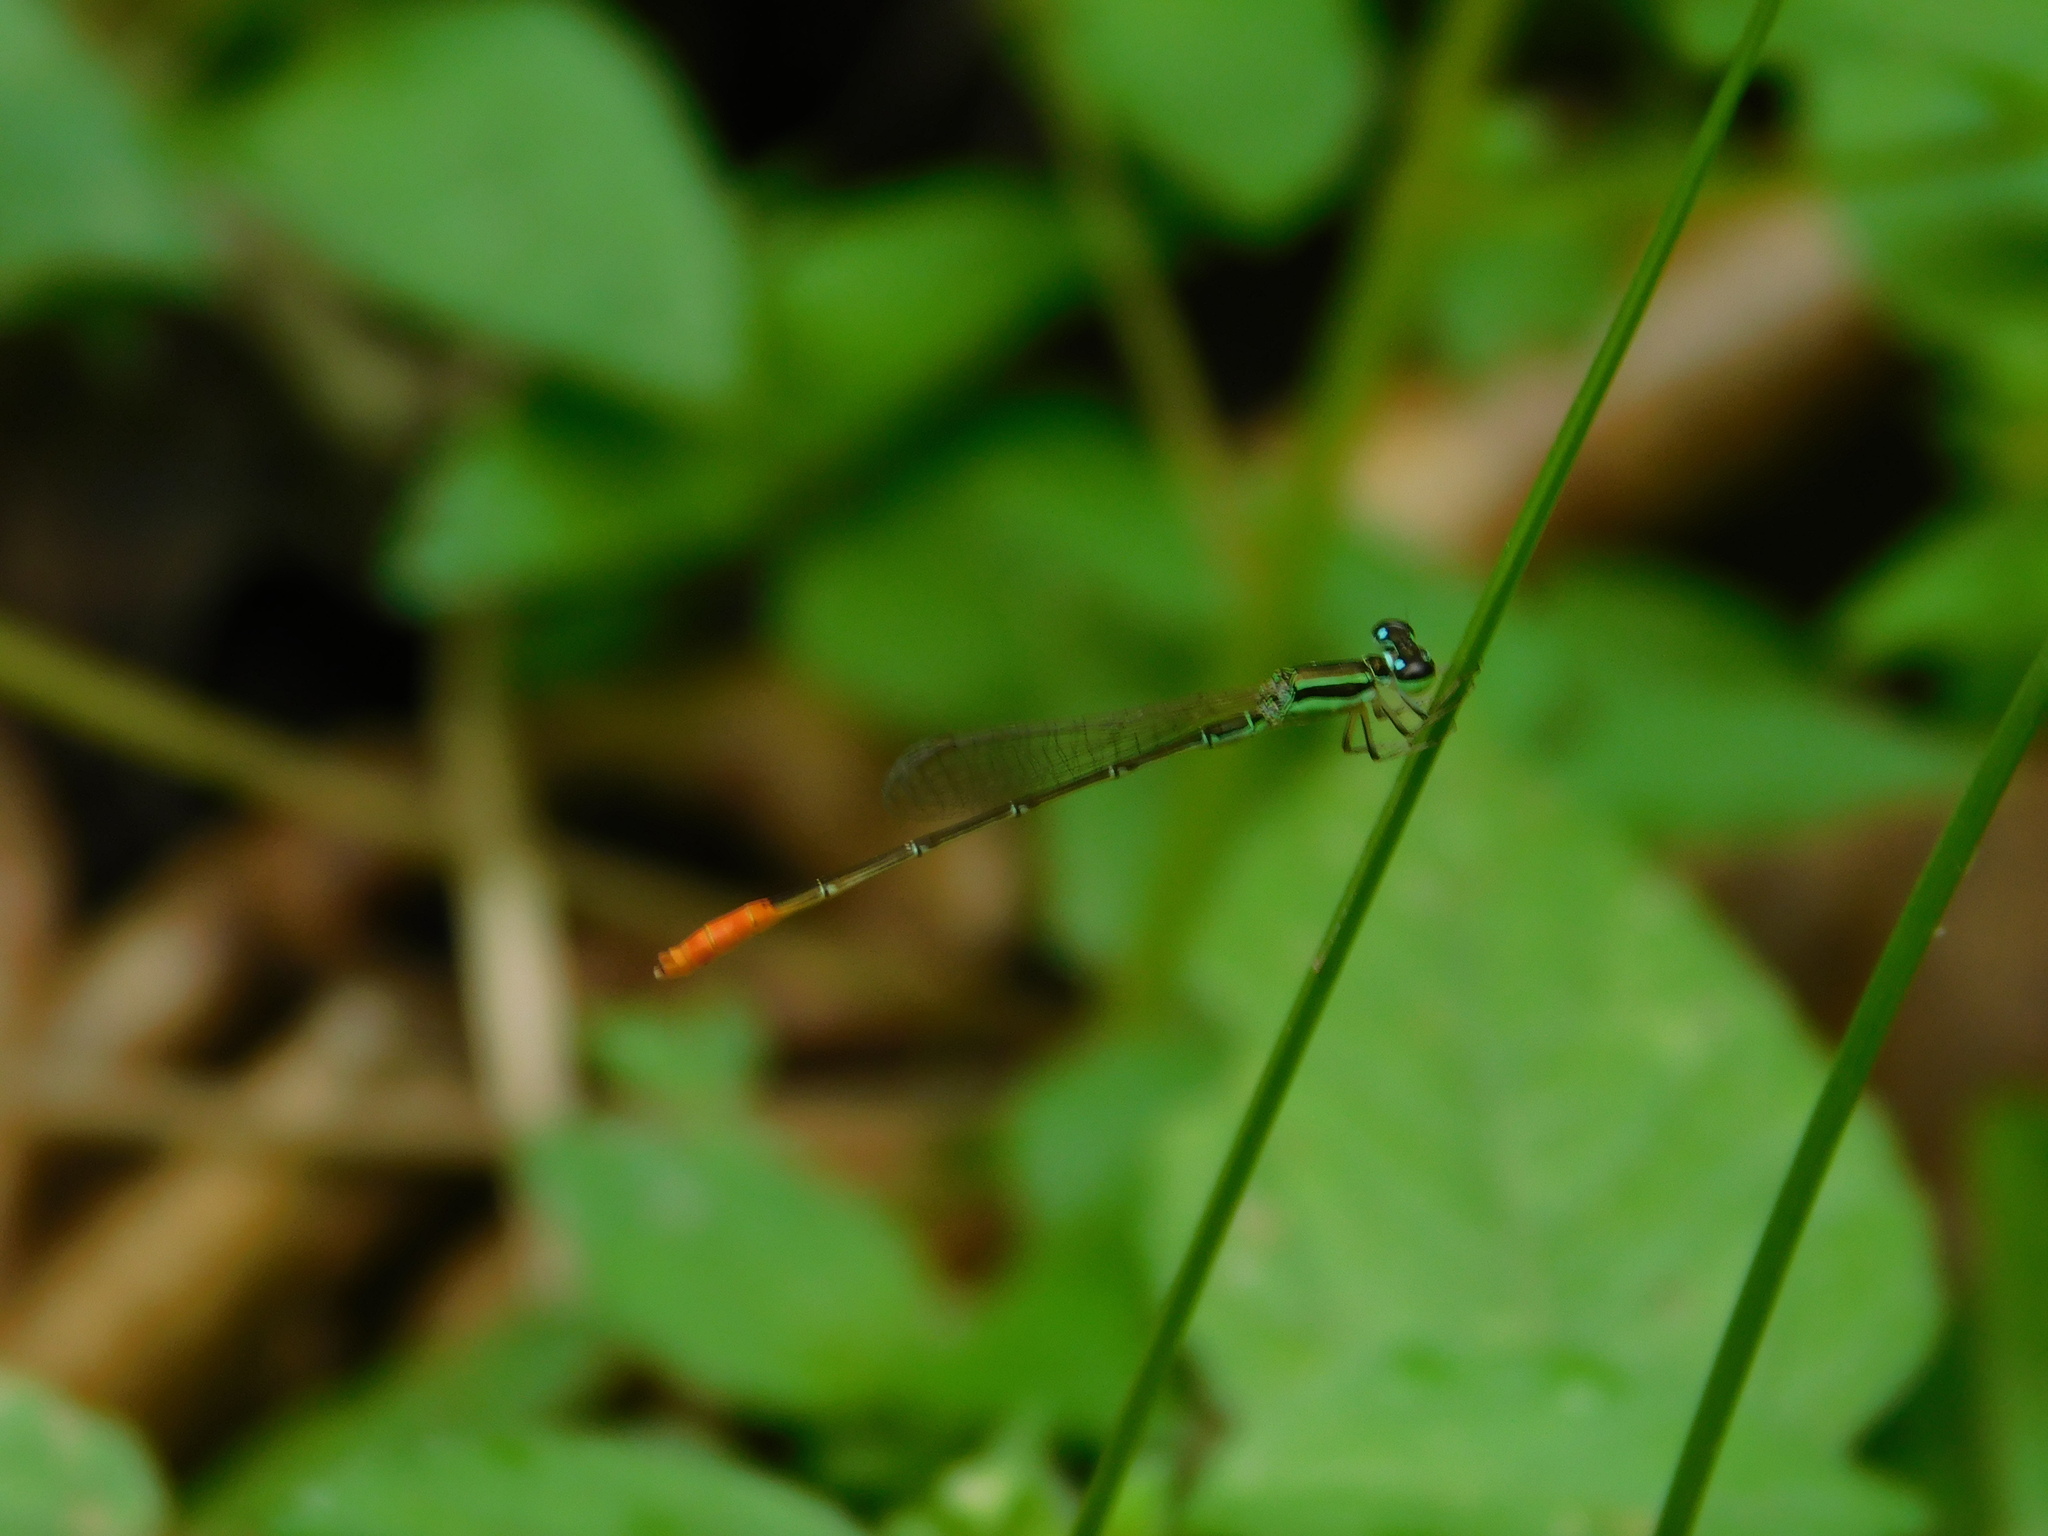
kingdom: Animalia
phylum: Arthropoda
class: Insecta
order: Odonata
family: Coenagrionidae
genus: Agriocnemis
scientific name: Agriocnemis femina
